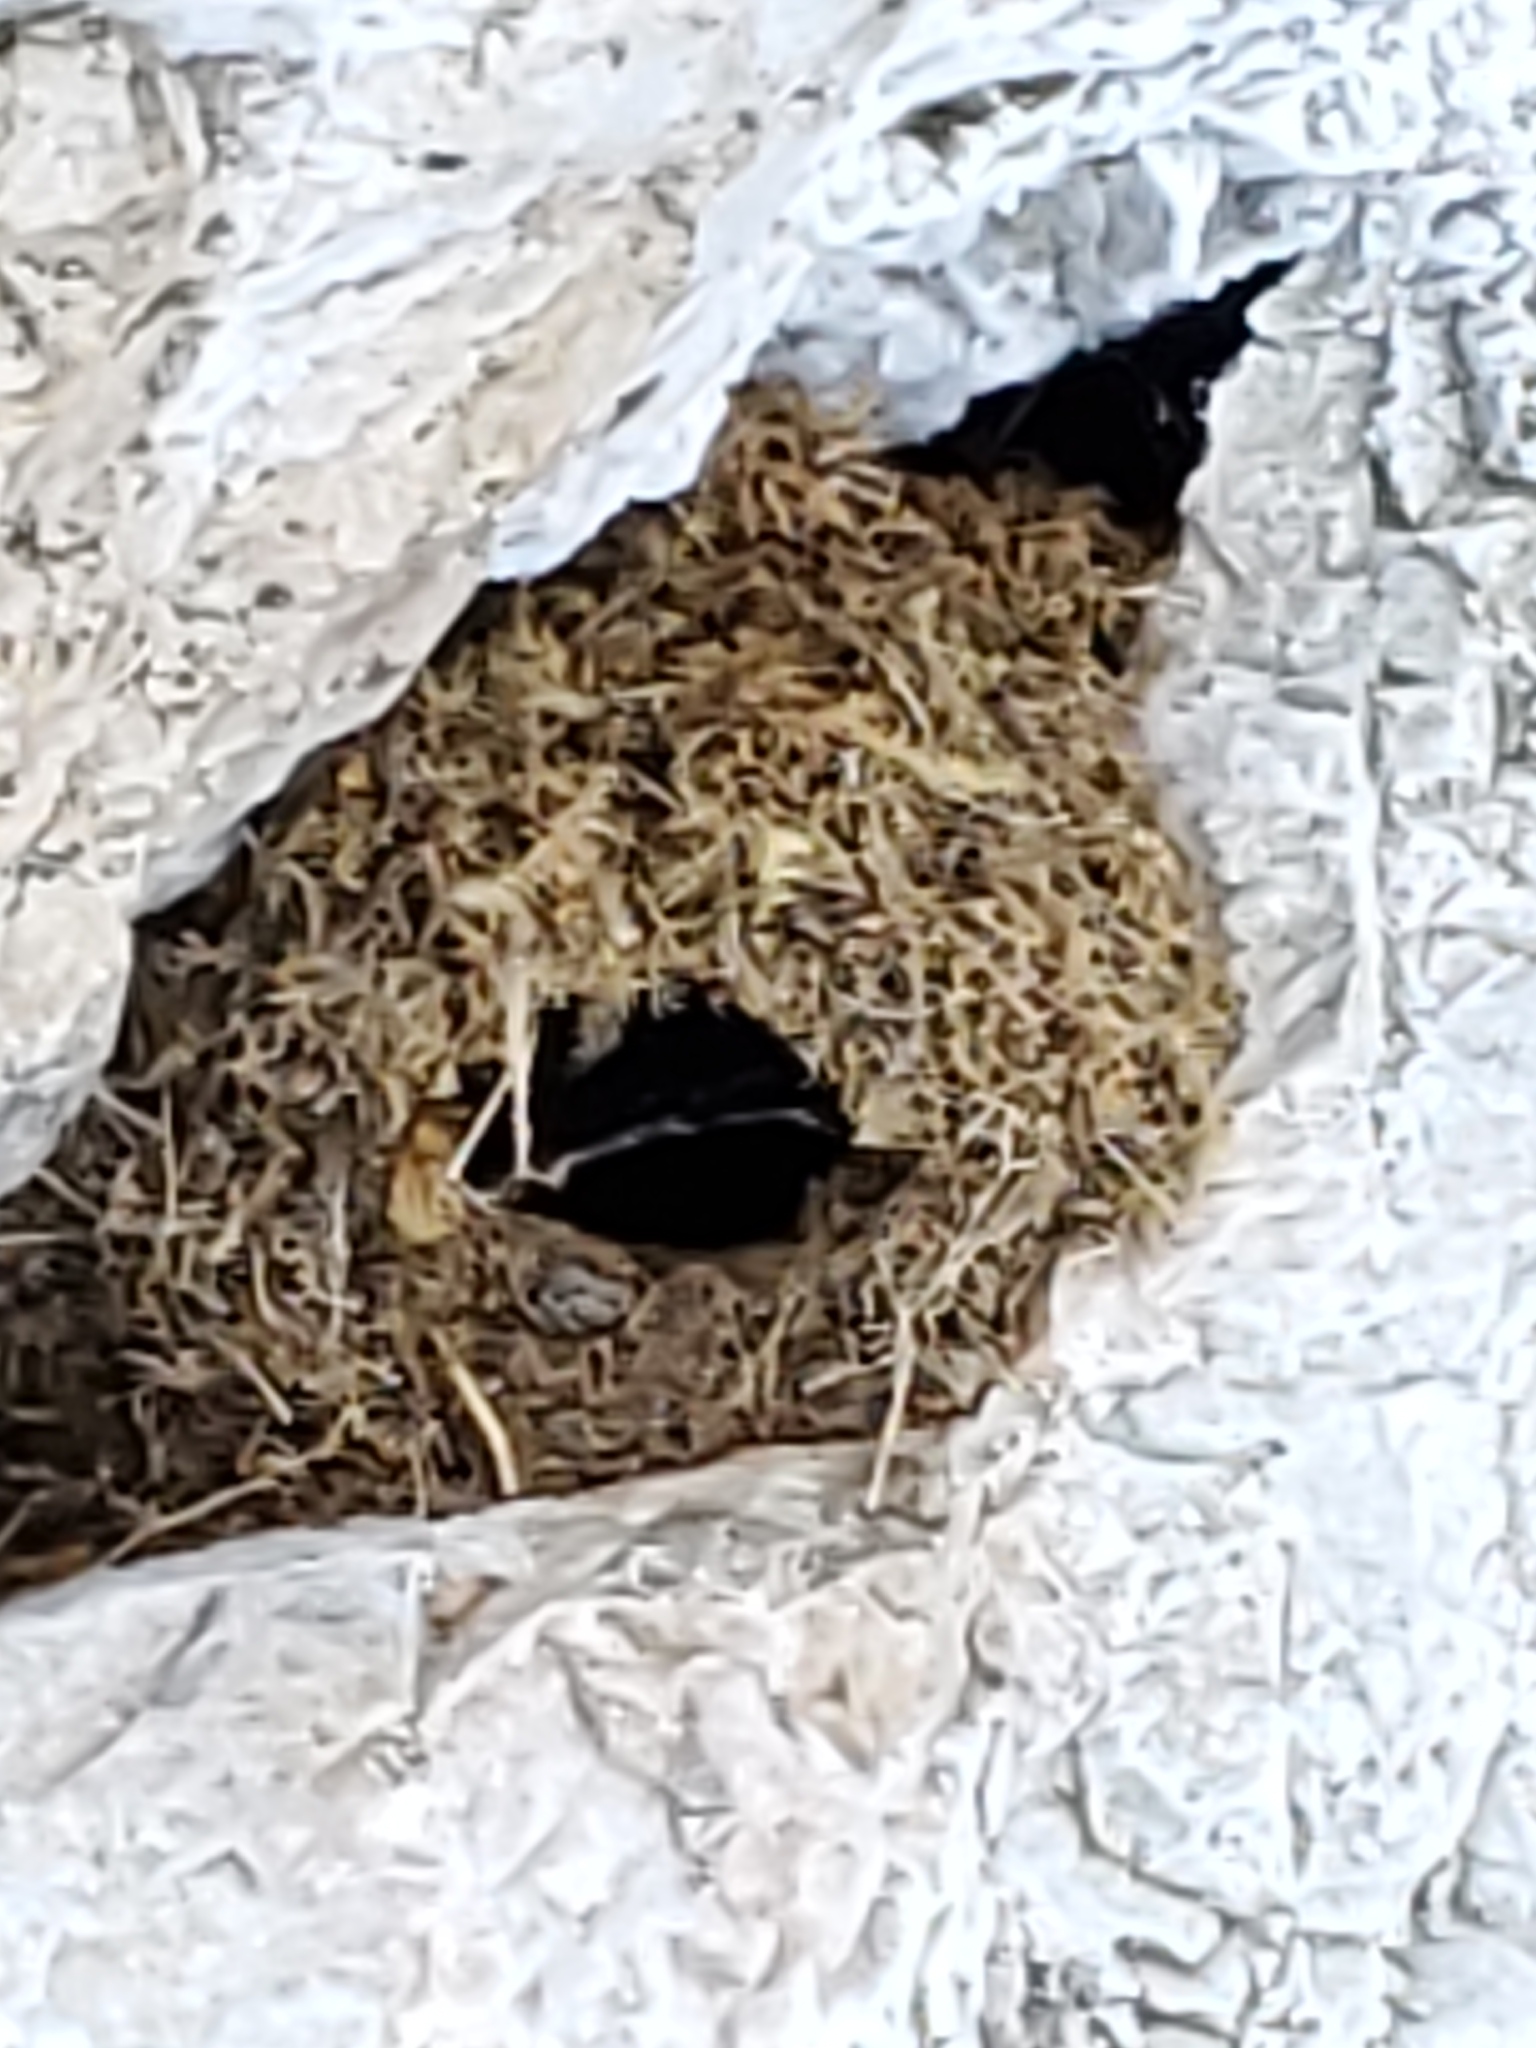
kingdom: Animalia
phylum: Chordata
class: Aves
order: Passeriformes
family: Cinclidae
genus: Cinclus
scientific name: Cinclus mexicanus
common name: American dipper
